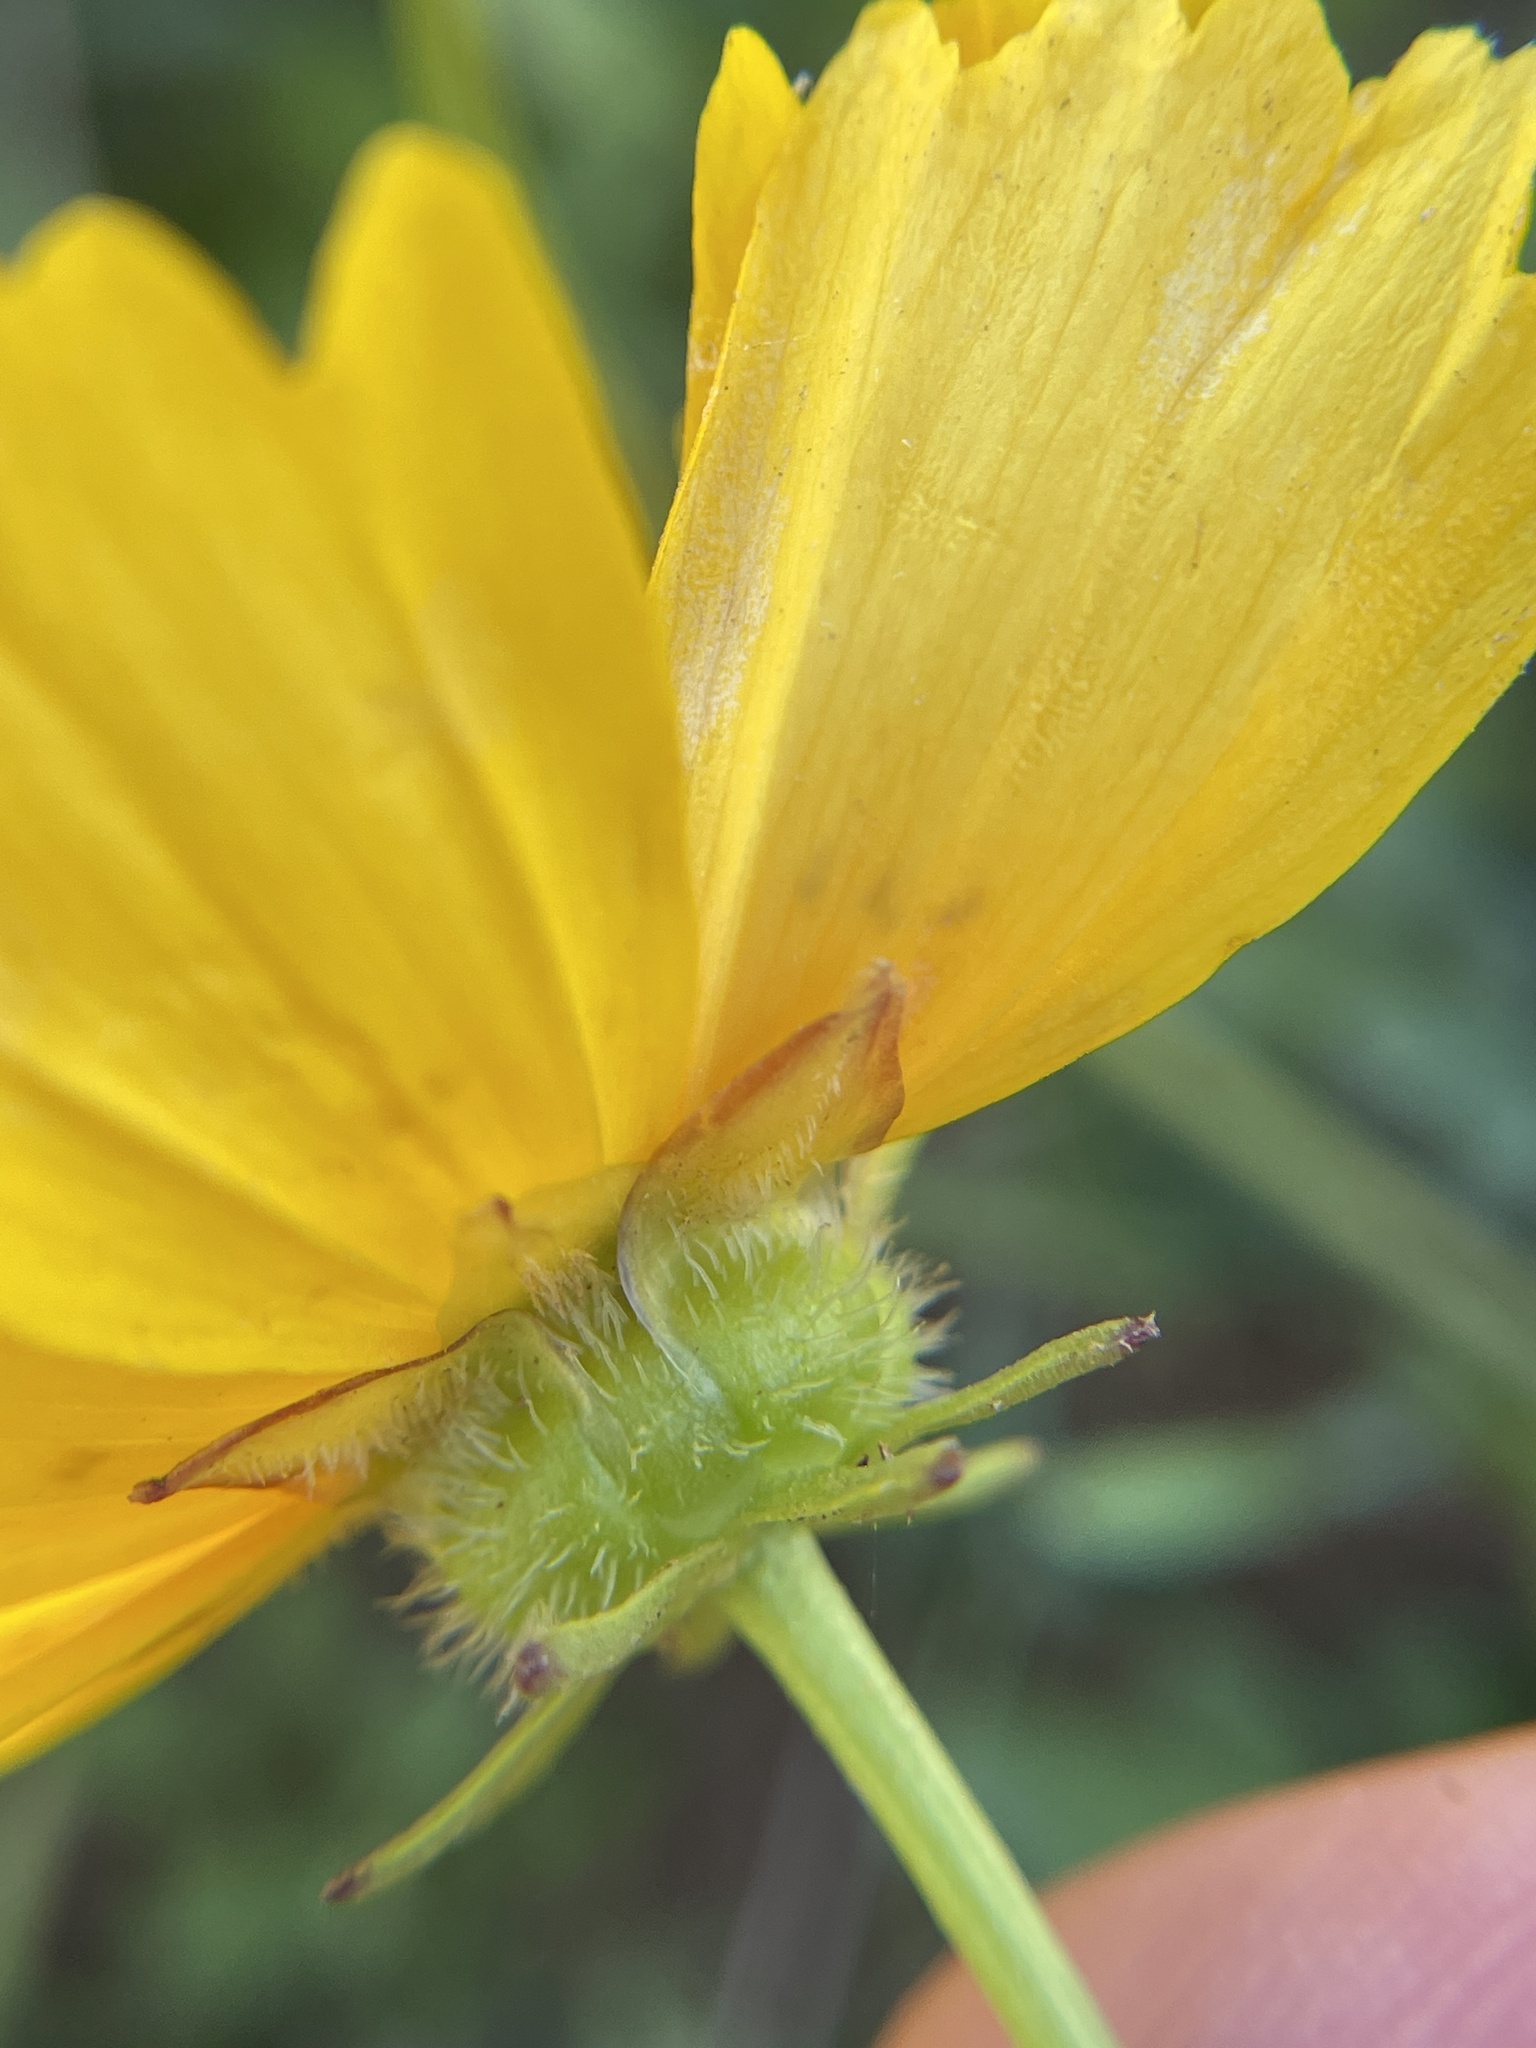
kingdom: Plantae
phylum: Tracheophyta
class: Magnoliopsida
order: Asterales
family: Asteraceae
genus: Coreopsis
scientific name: Coreopsis nuecensis
